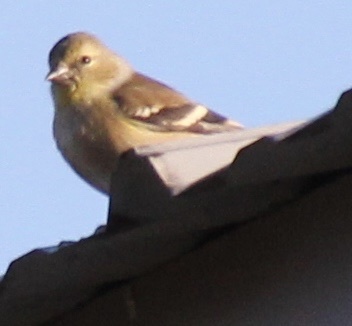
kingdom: Animalia
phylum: Chordata
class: Aves
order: Passeriformes
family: Fringillidae
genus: Spinus
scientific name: Spinus tristis
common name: American goldfinch
